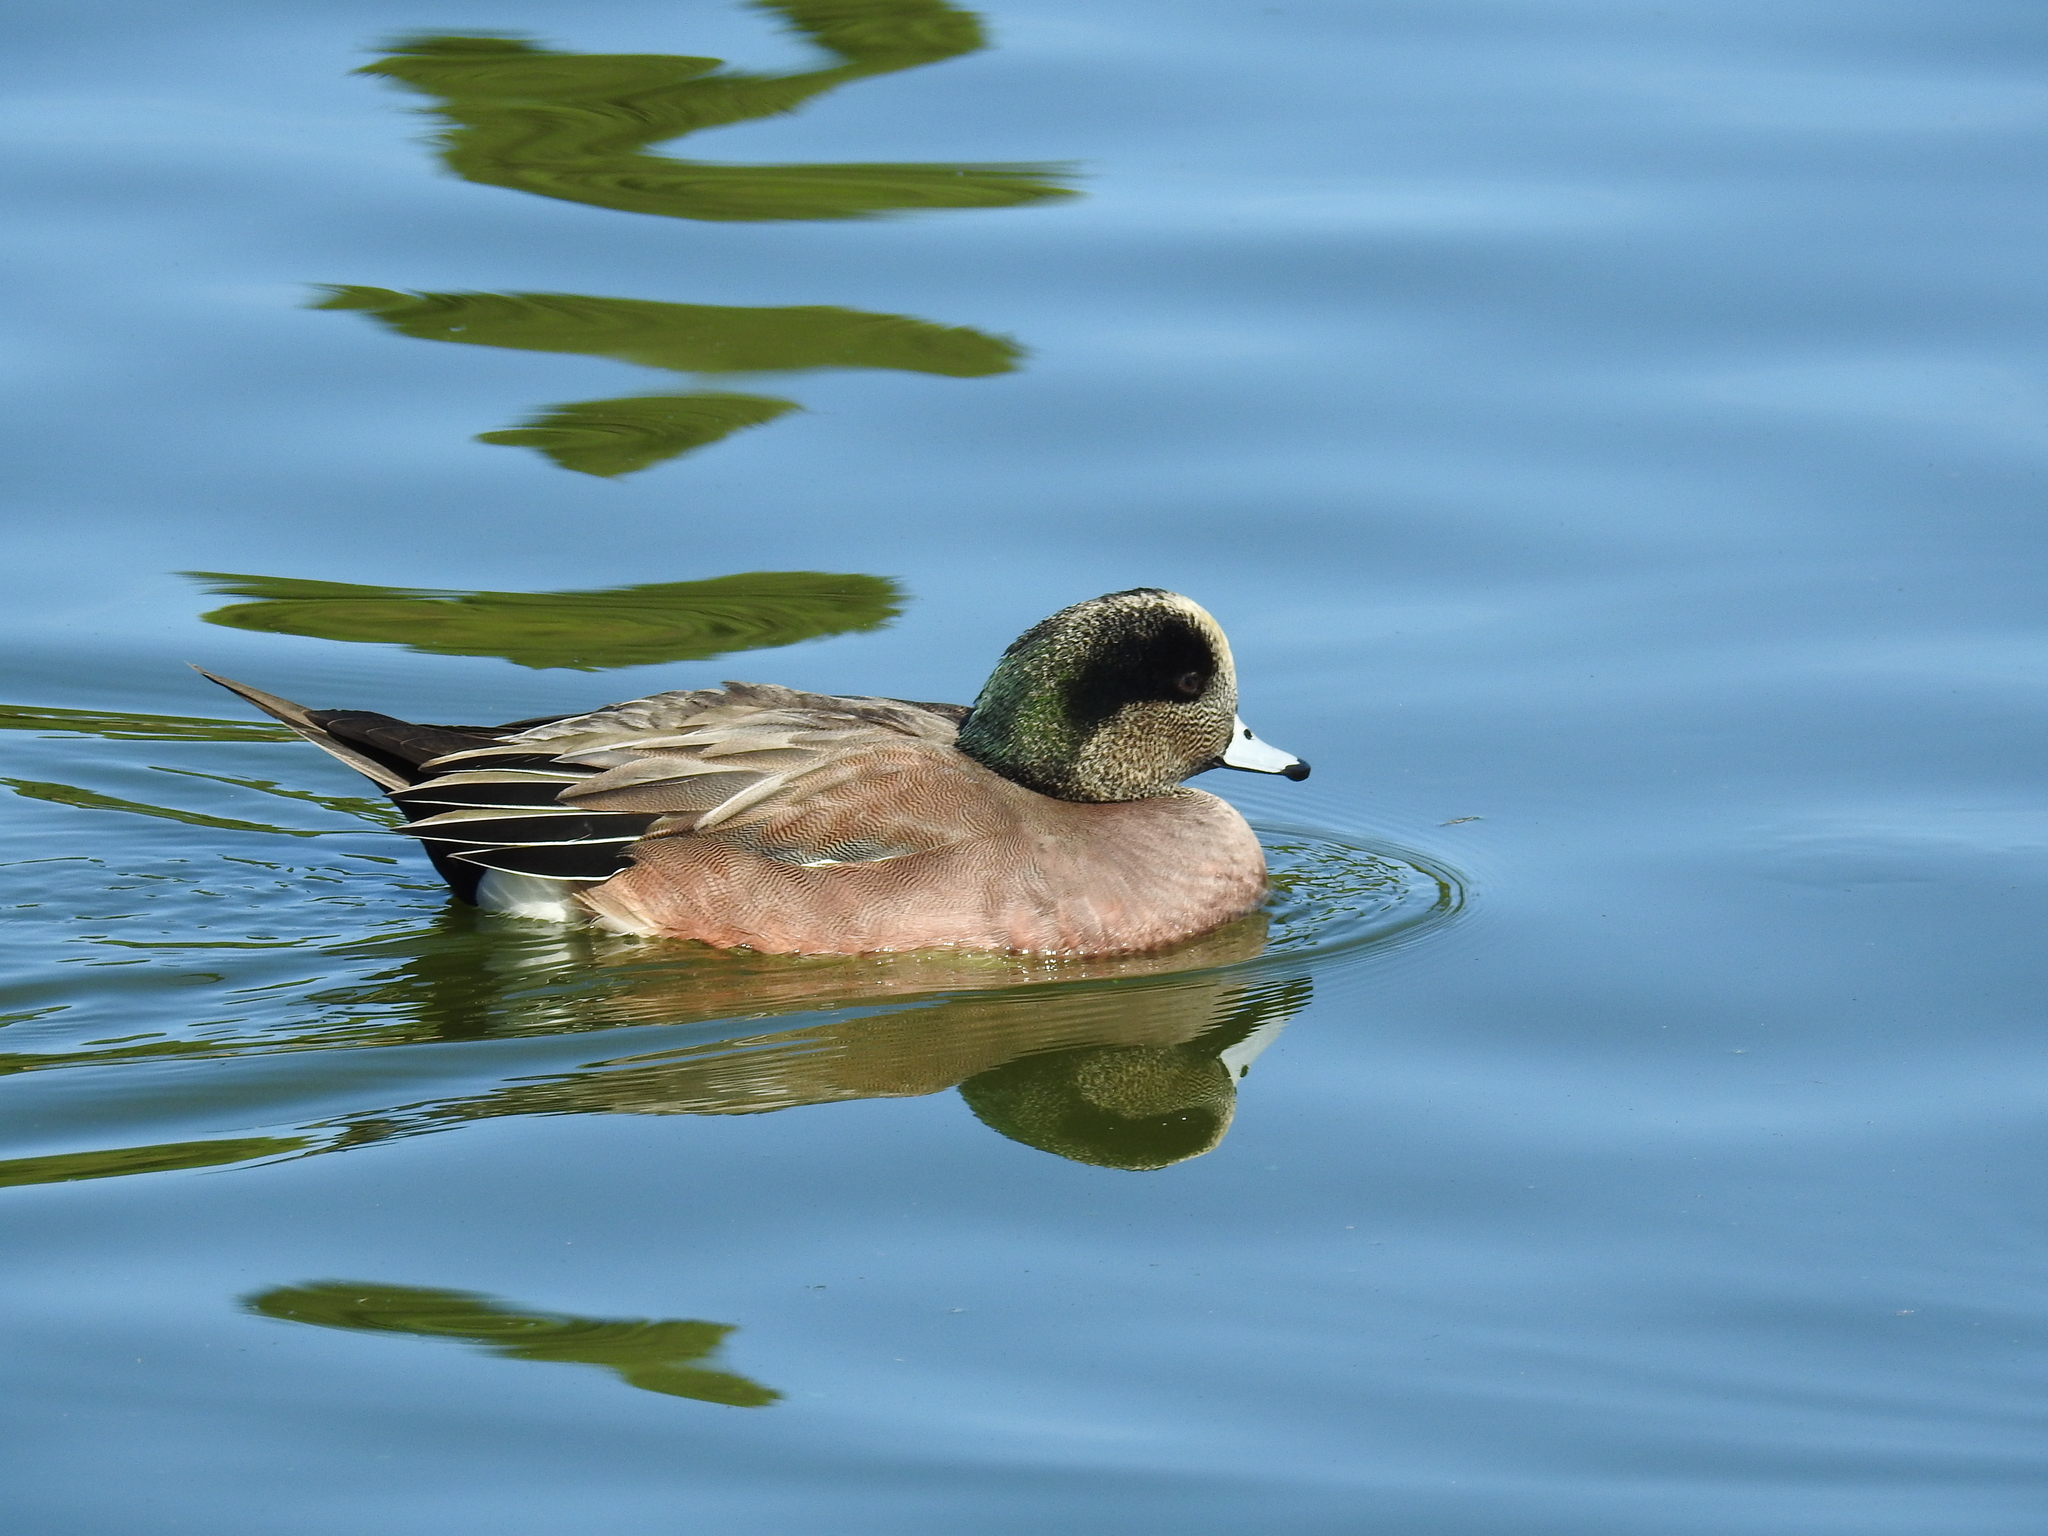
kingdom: Animalia
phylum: Chordata
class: Aves
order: Anseriformes
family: Anatidae
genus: Mareca
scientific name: Mareca americana
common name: American wigeon
